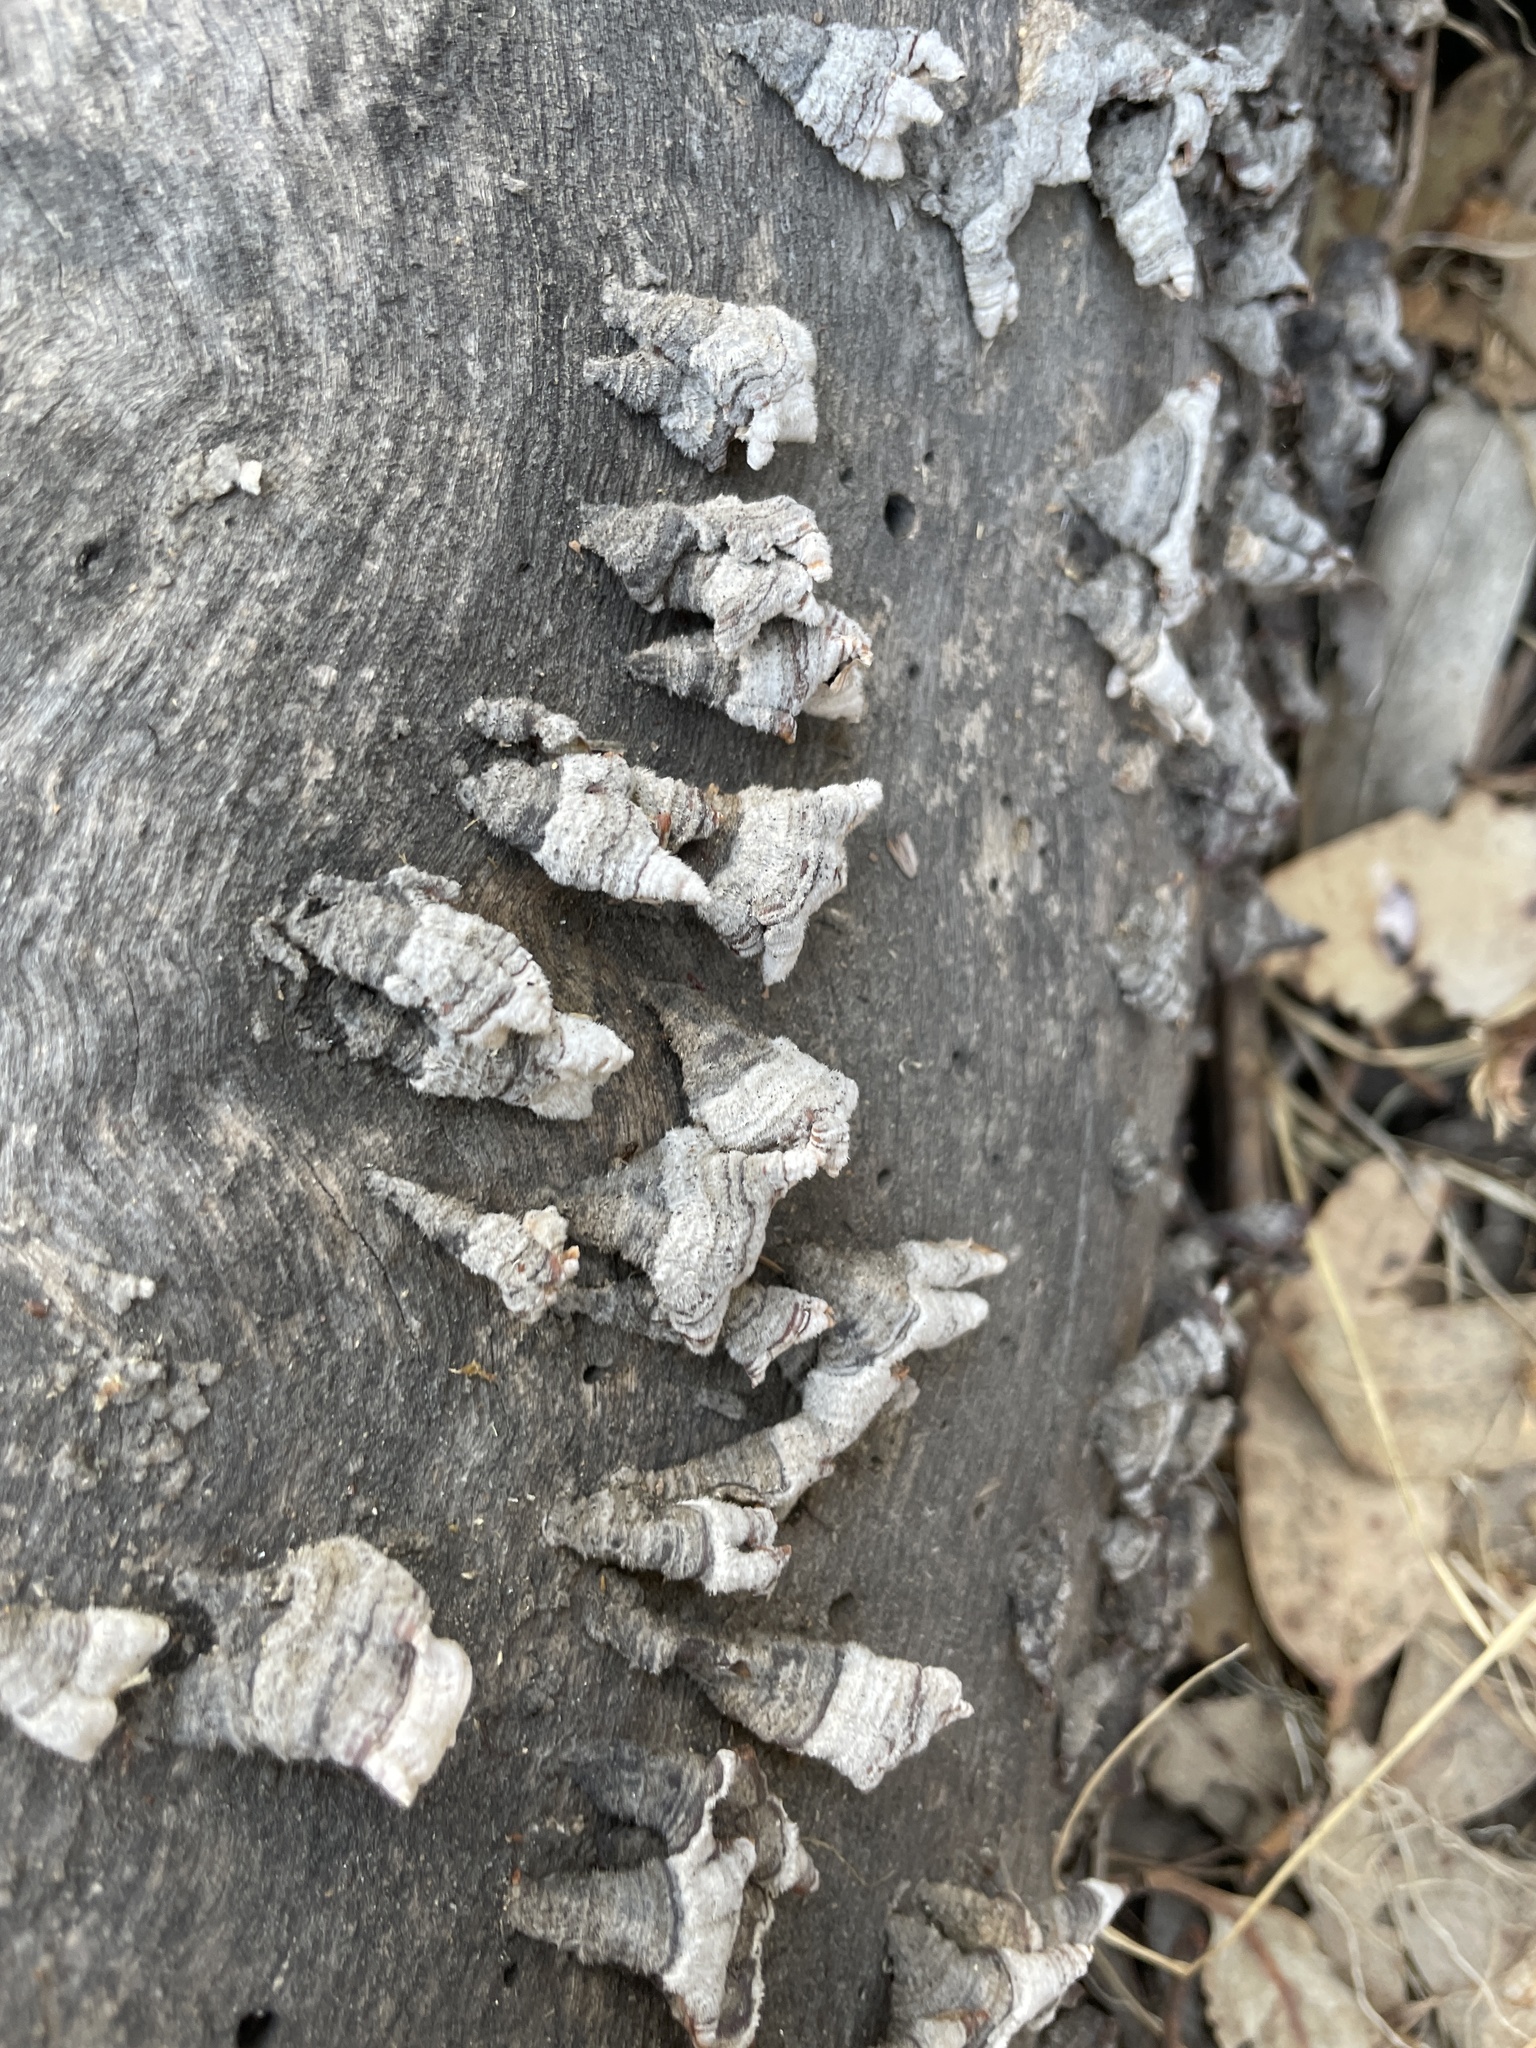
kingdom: Fungi
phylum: Basidiomycota
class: Agaricomycetes
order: Russulales
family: Stereaceae
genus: Stereum
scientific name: Stereum hirsutum
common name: Hairy curtain crust
